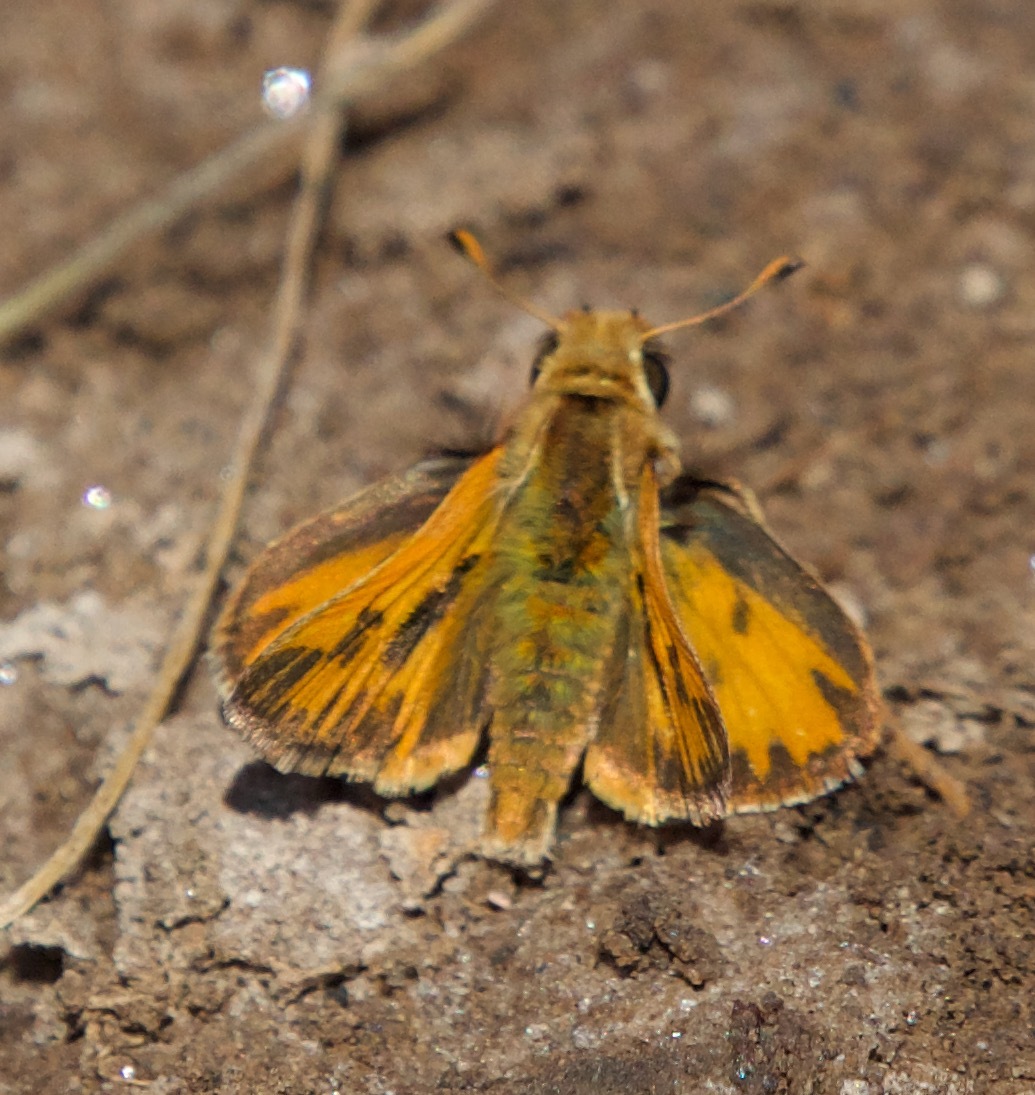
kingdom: Animalia
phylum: Arthropoda
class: Insecta
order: Lepidoptera
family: Hesperiidae
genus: Hylephila
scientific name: Hylephila fasciolata
